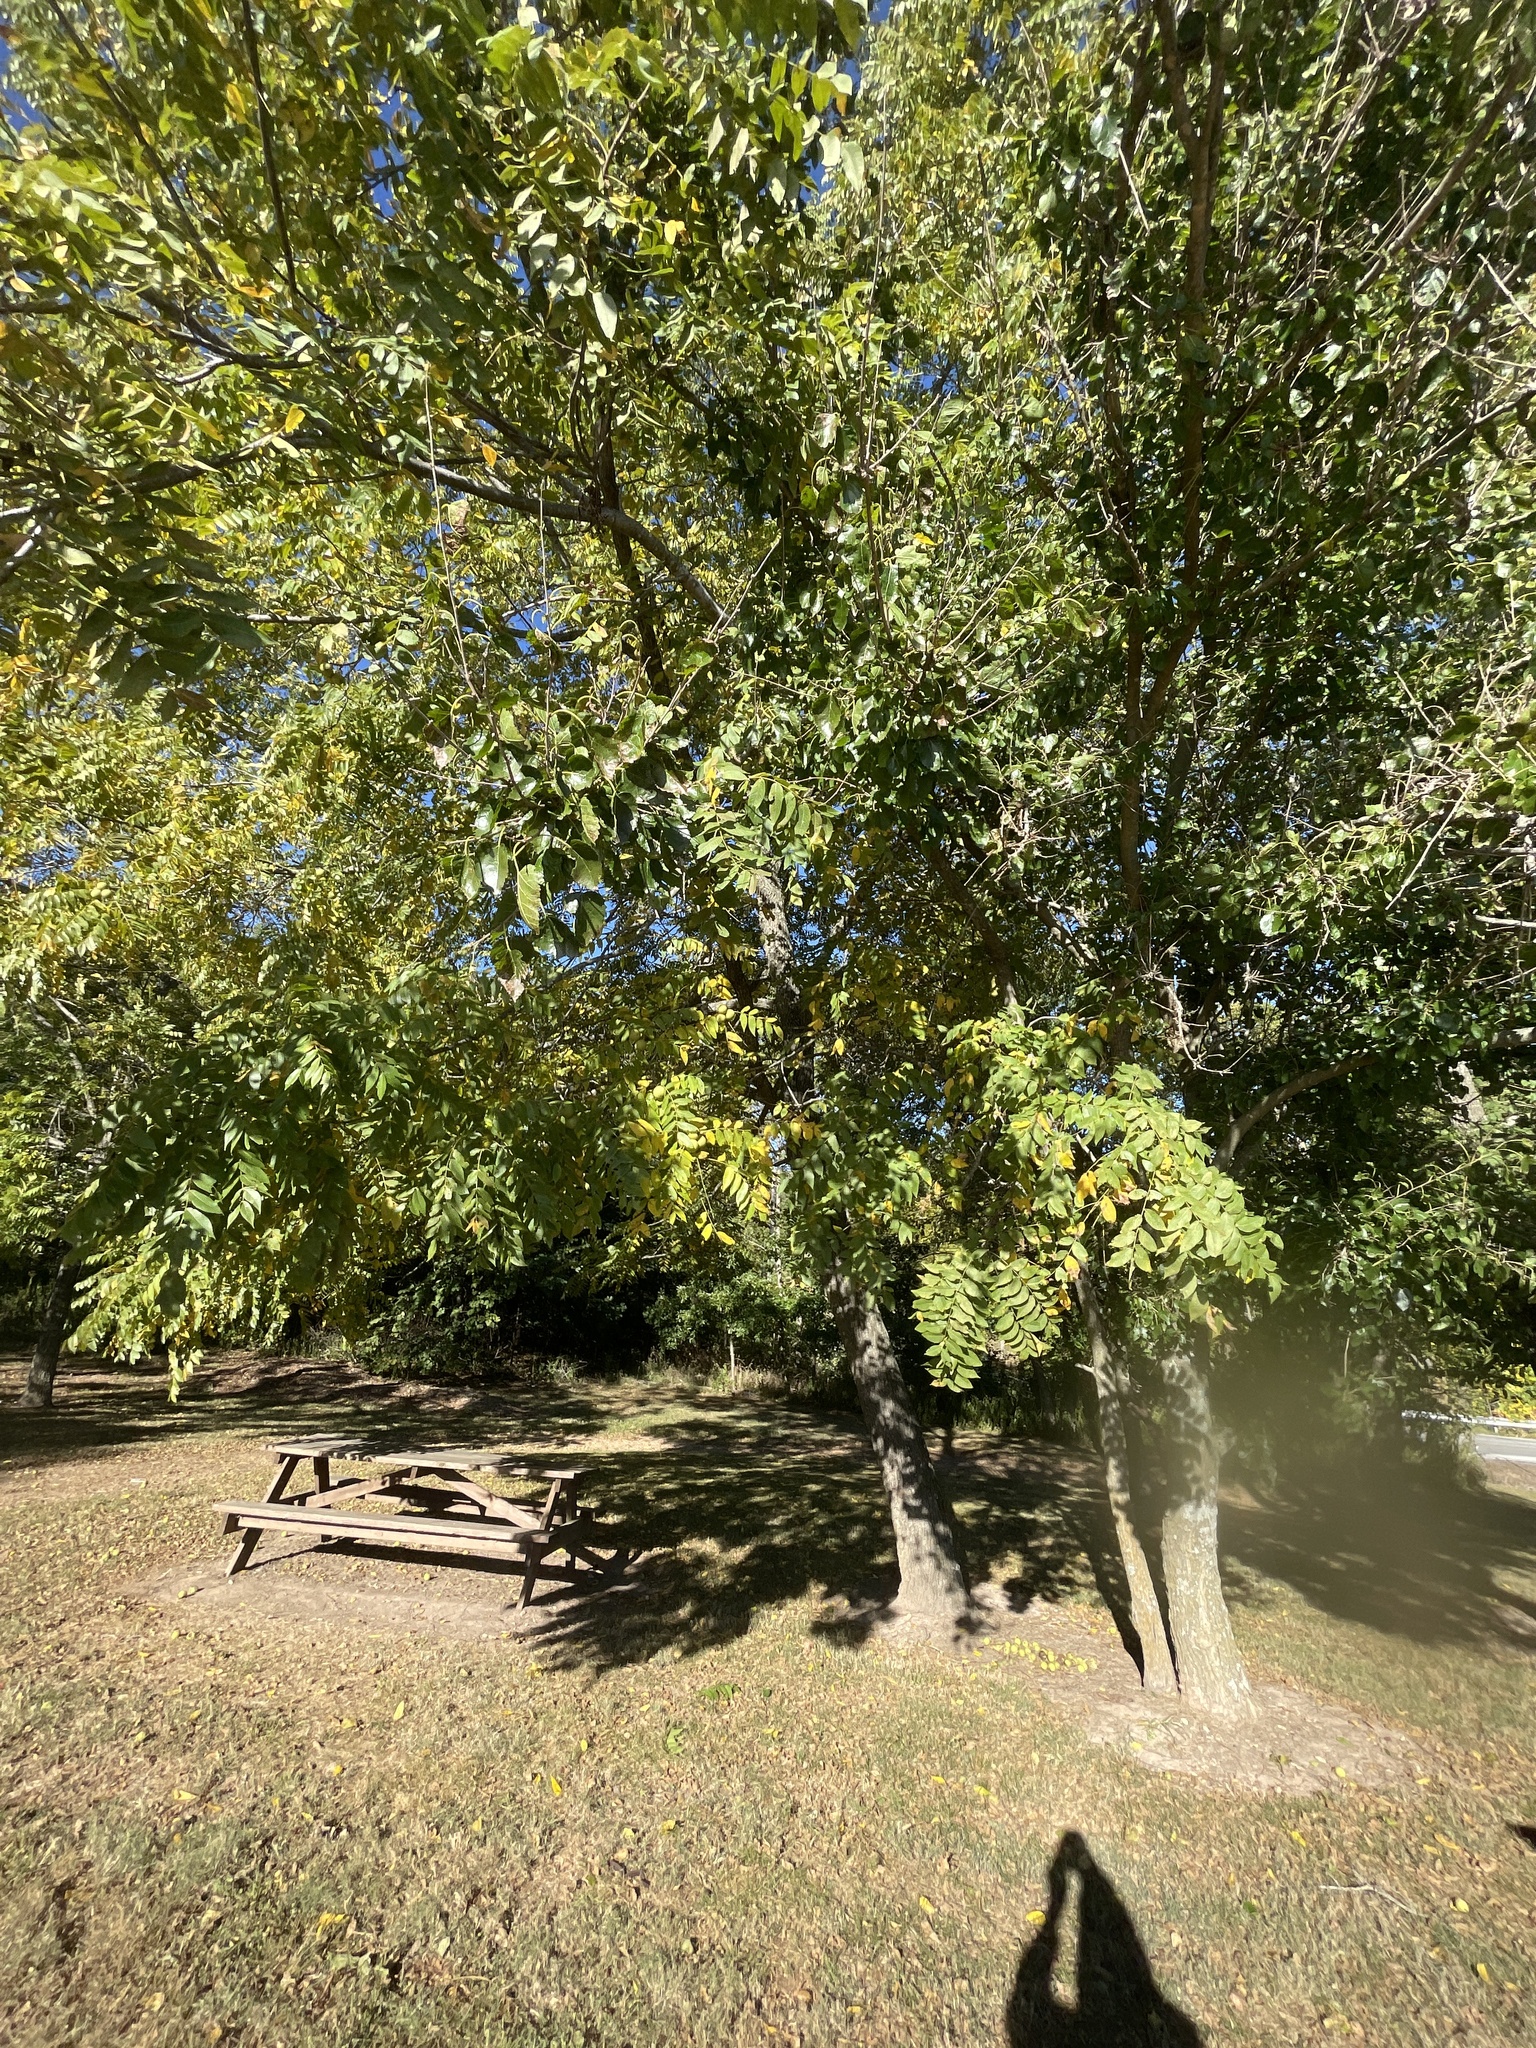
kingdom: Plantae
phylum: Tracheophyta
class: Magnoliopsida
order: Fagales
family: Juglandaceae
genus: Juglans
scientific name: Juglans nigra
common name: Black walnut
